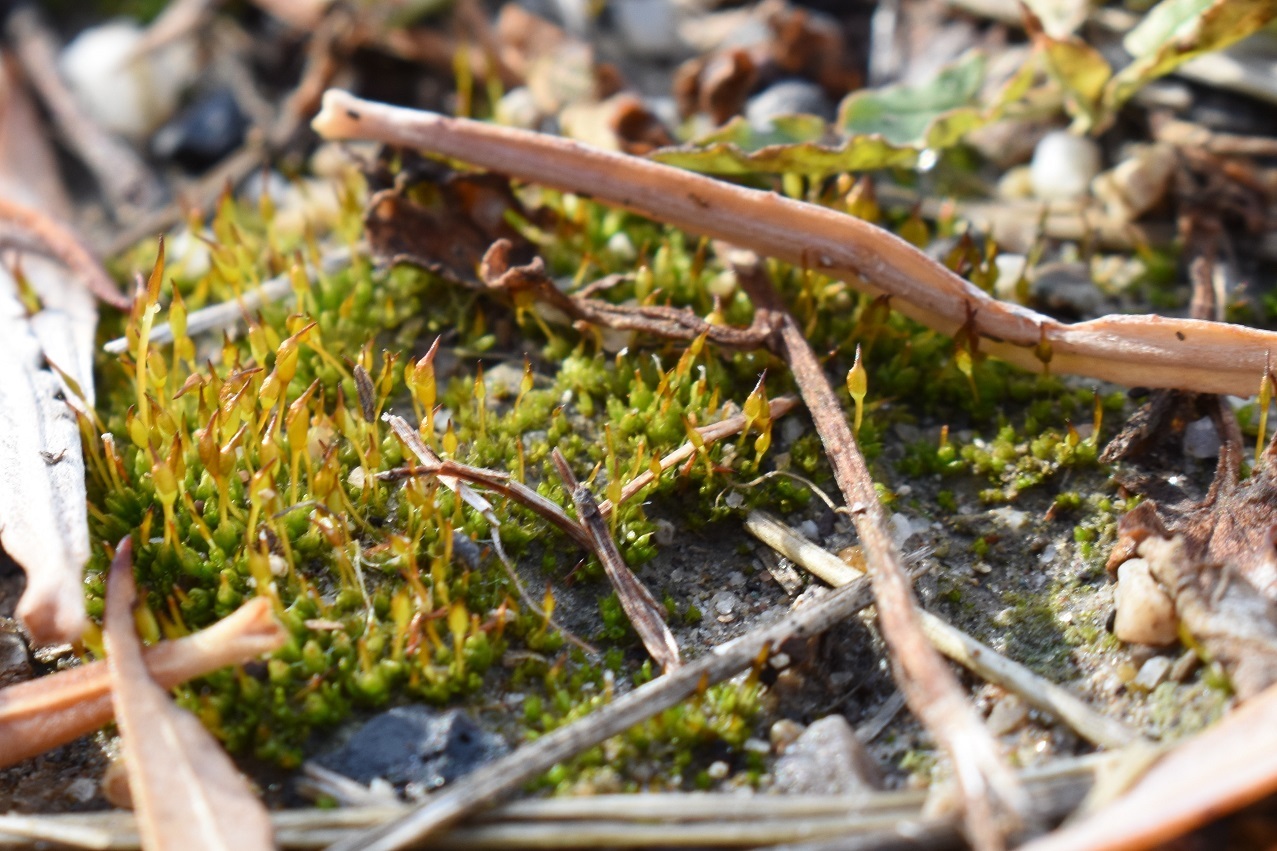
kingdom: Plantae
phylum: Bryophyta
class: Bryopsida
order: Pottiales
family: Pottiaceae
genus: Pterygoneurum
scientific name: Pterygoneurum ovatum
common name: Ovate pterygoneurum
